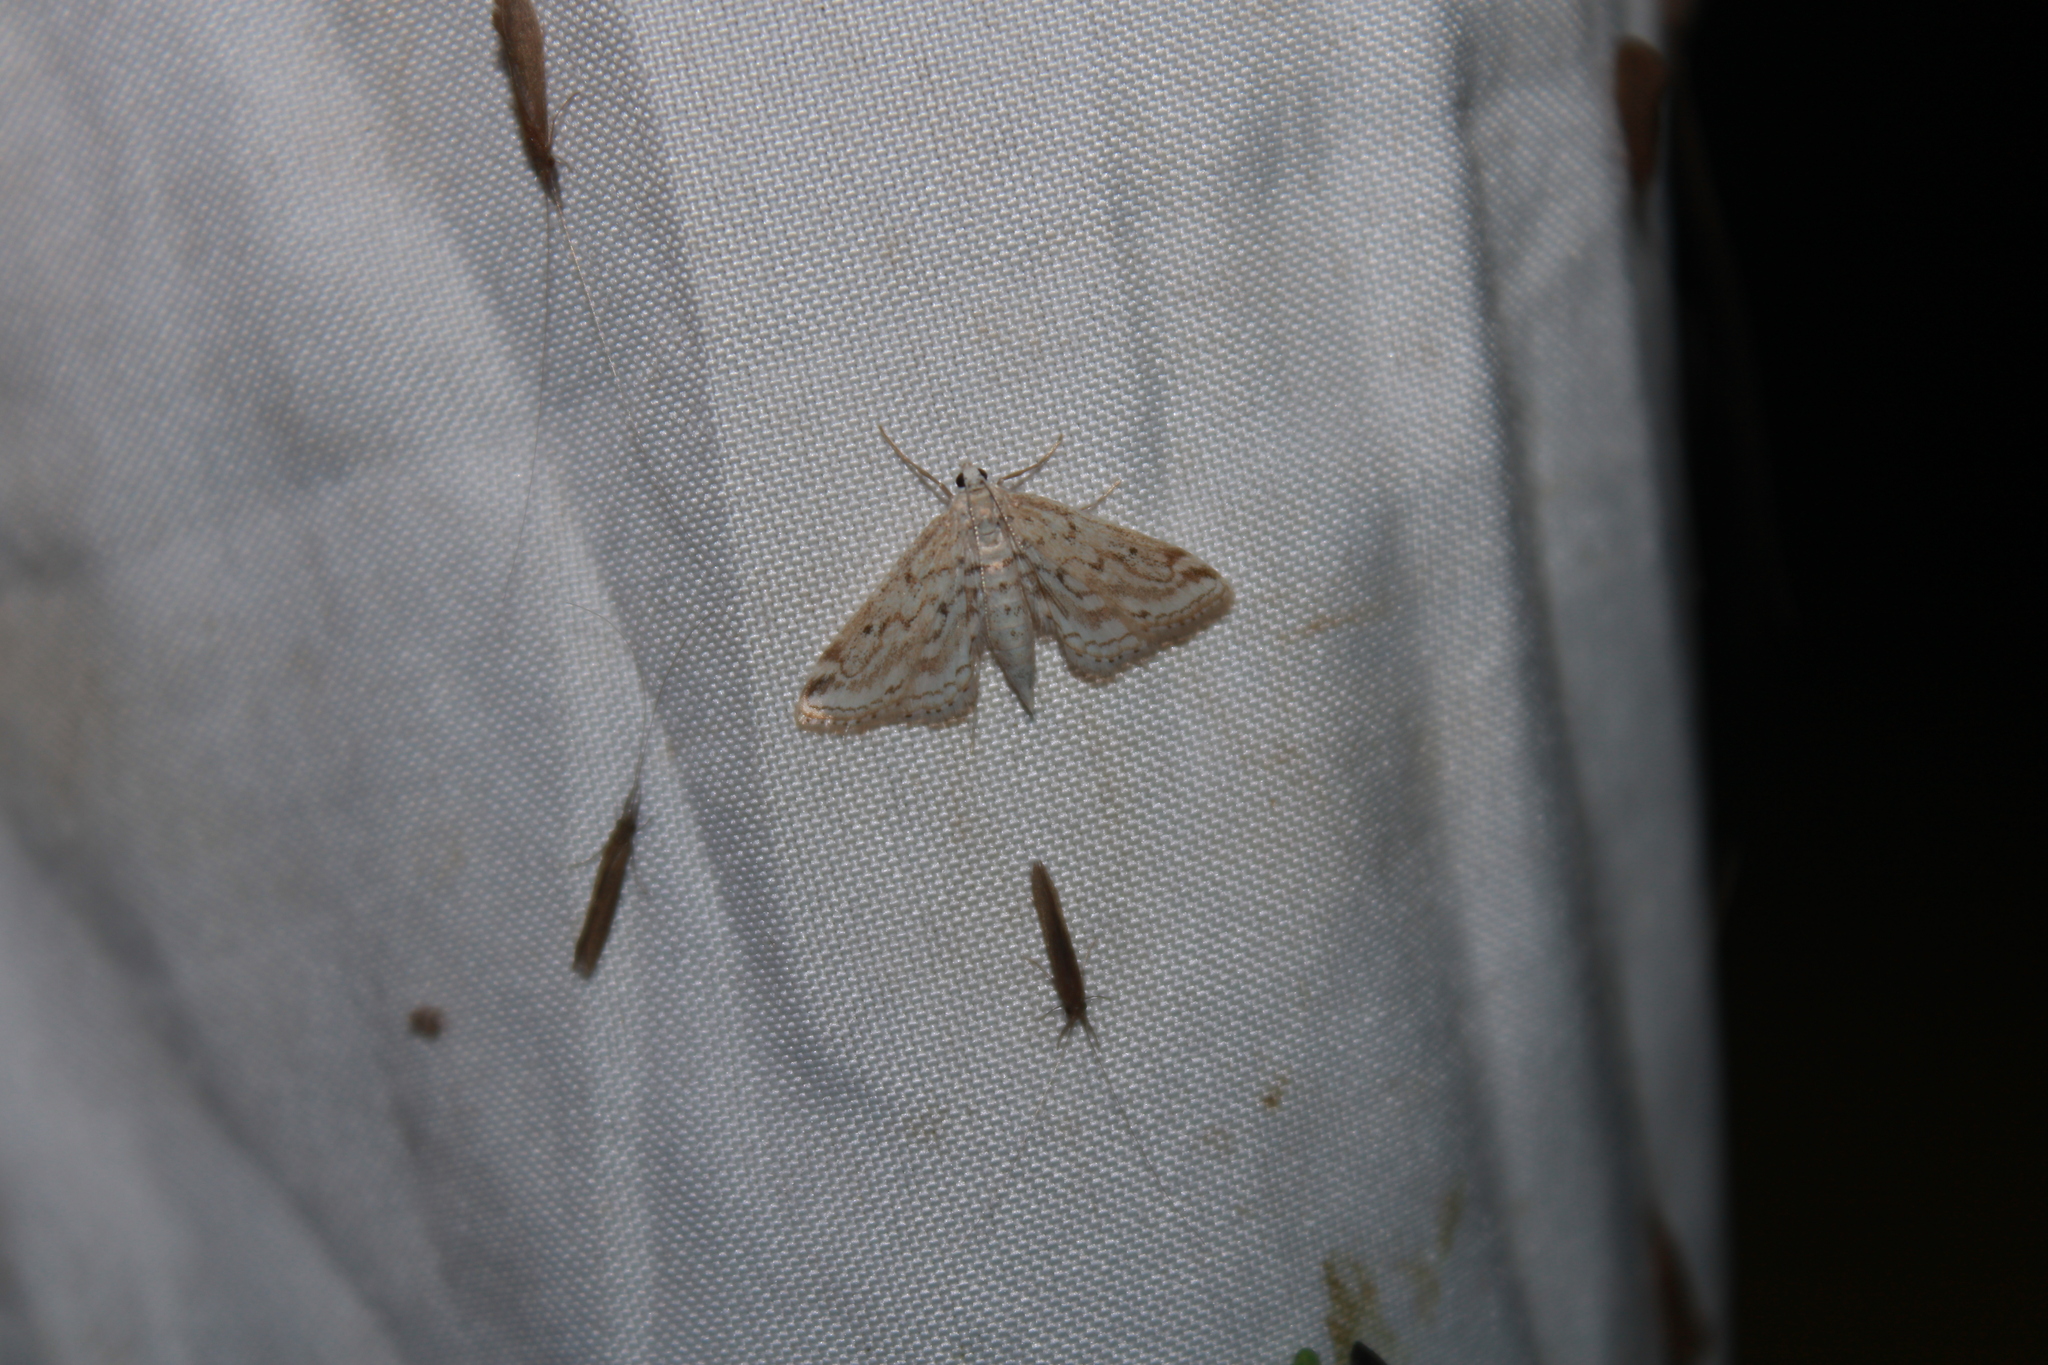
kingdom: Animalia
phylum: Arthropoda
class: Insecta
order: Lepidoptera
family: Crambidae
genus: Parapoynx
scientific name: Parapoynx allionealis
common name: Bladderwort casemaker
